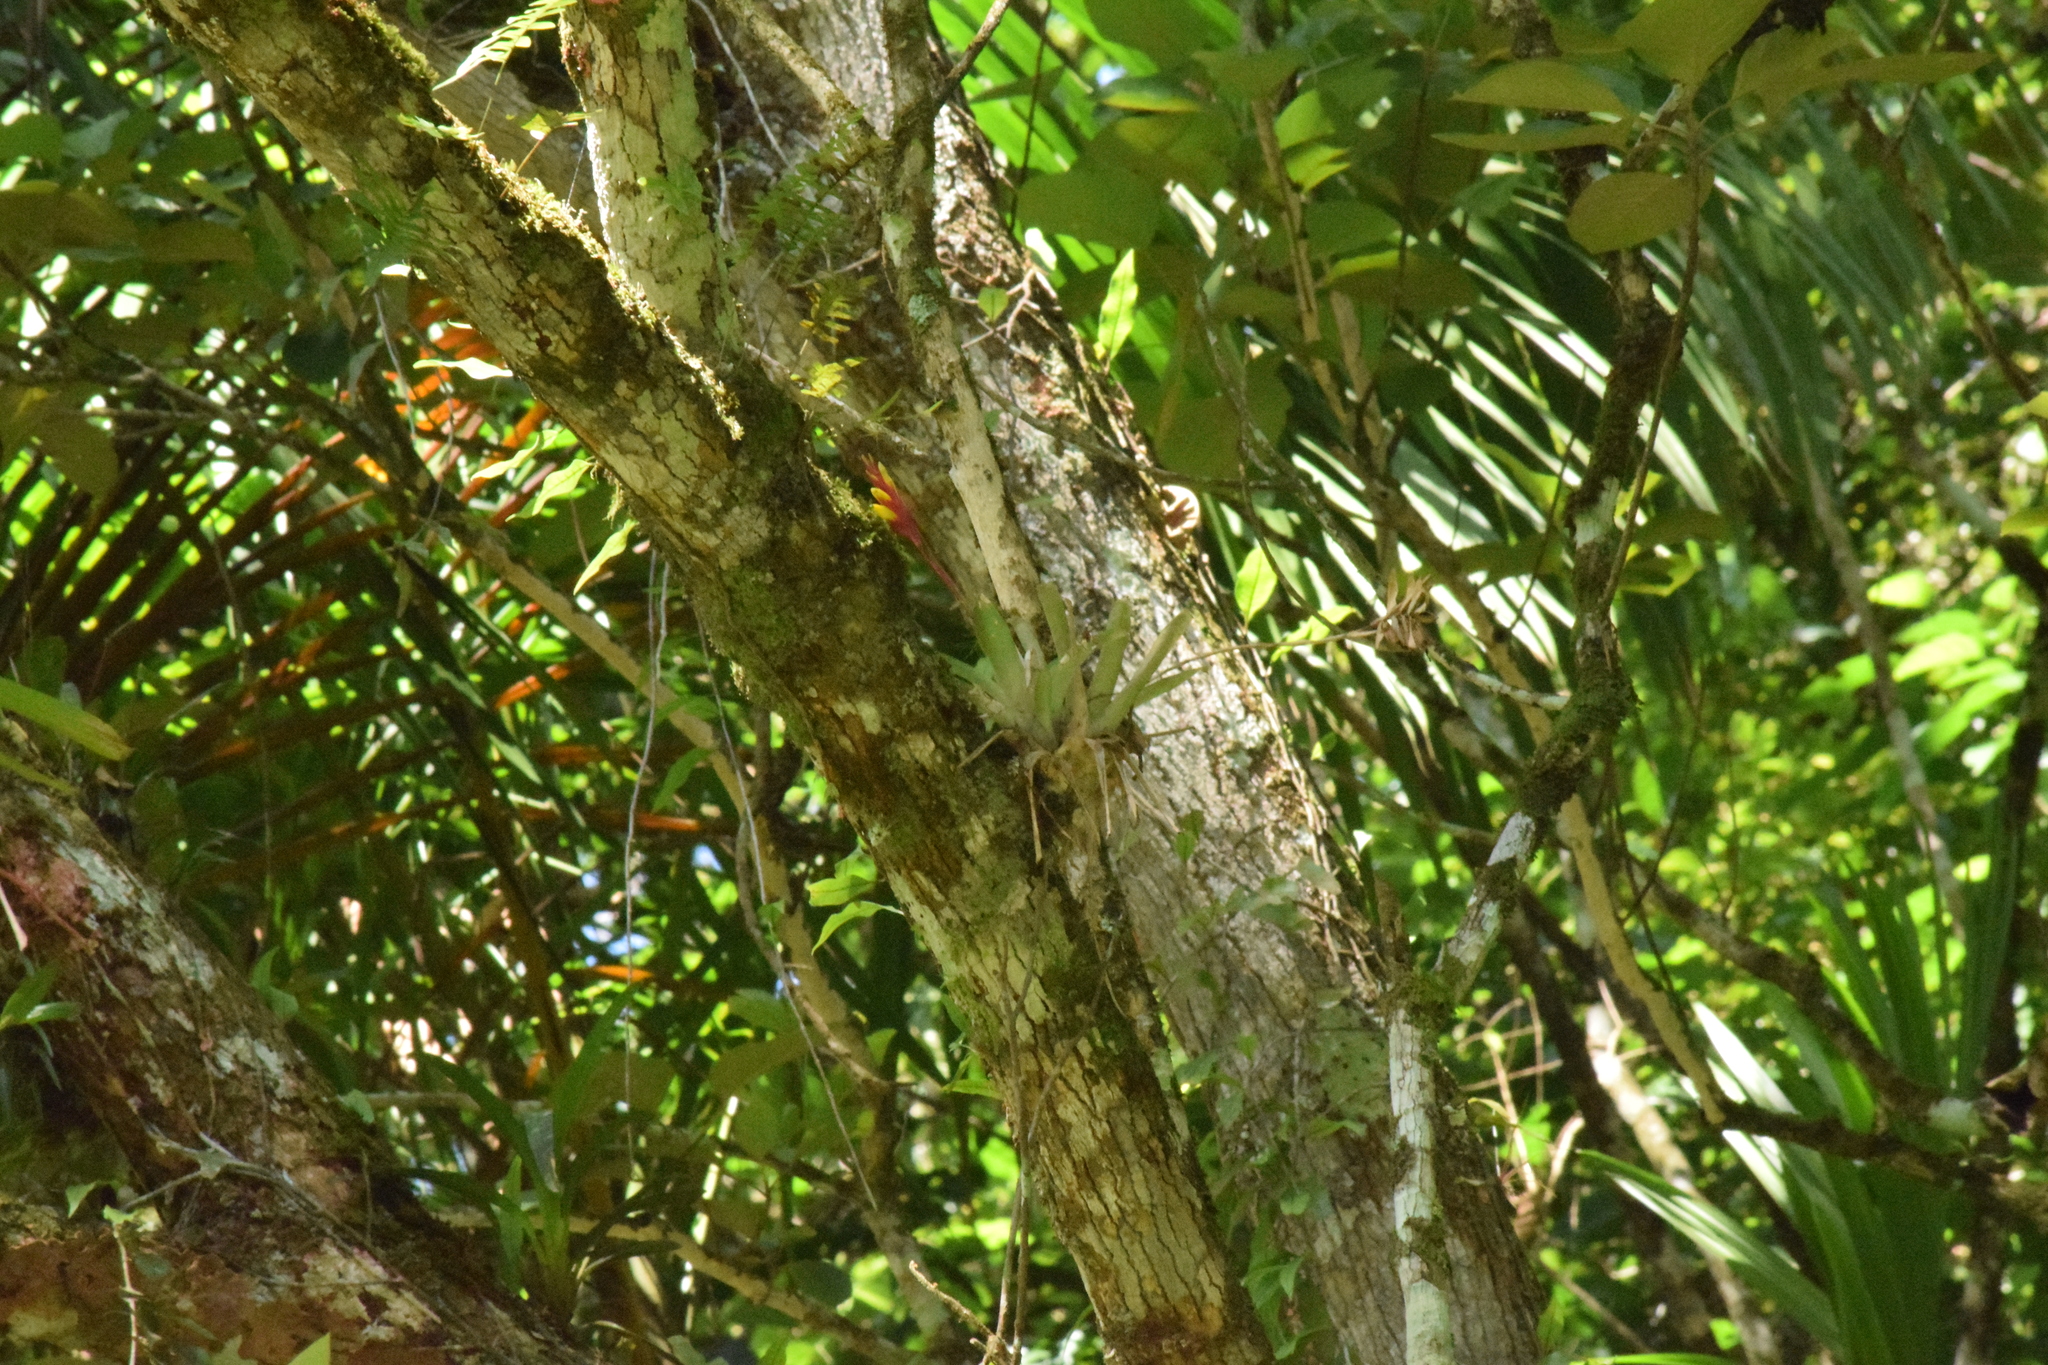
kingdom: Plantae
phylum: Tracheophyta
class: Liliopsida
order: Poales
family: Bromeliaceae
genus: Vriesea
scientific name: Vriesea carinata
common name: Lobster-claws
